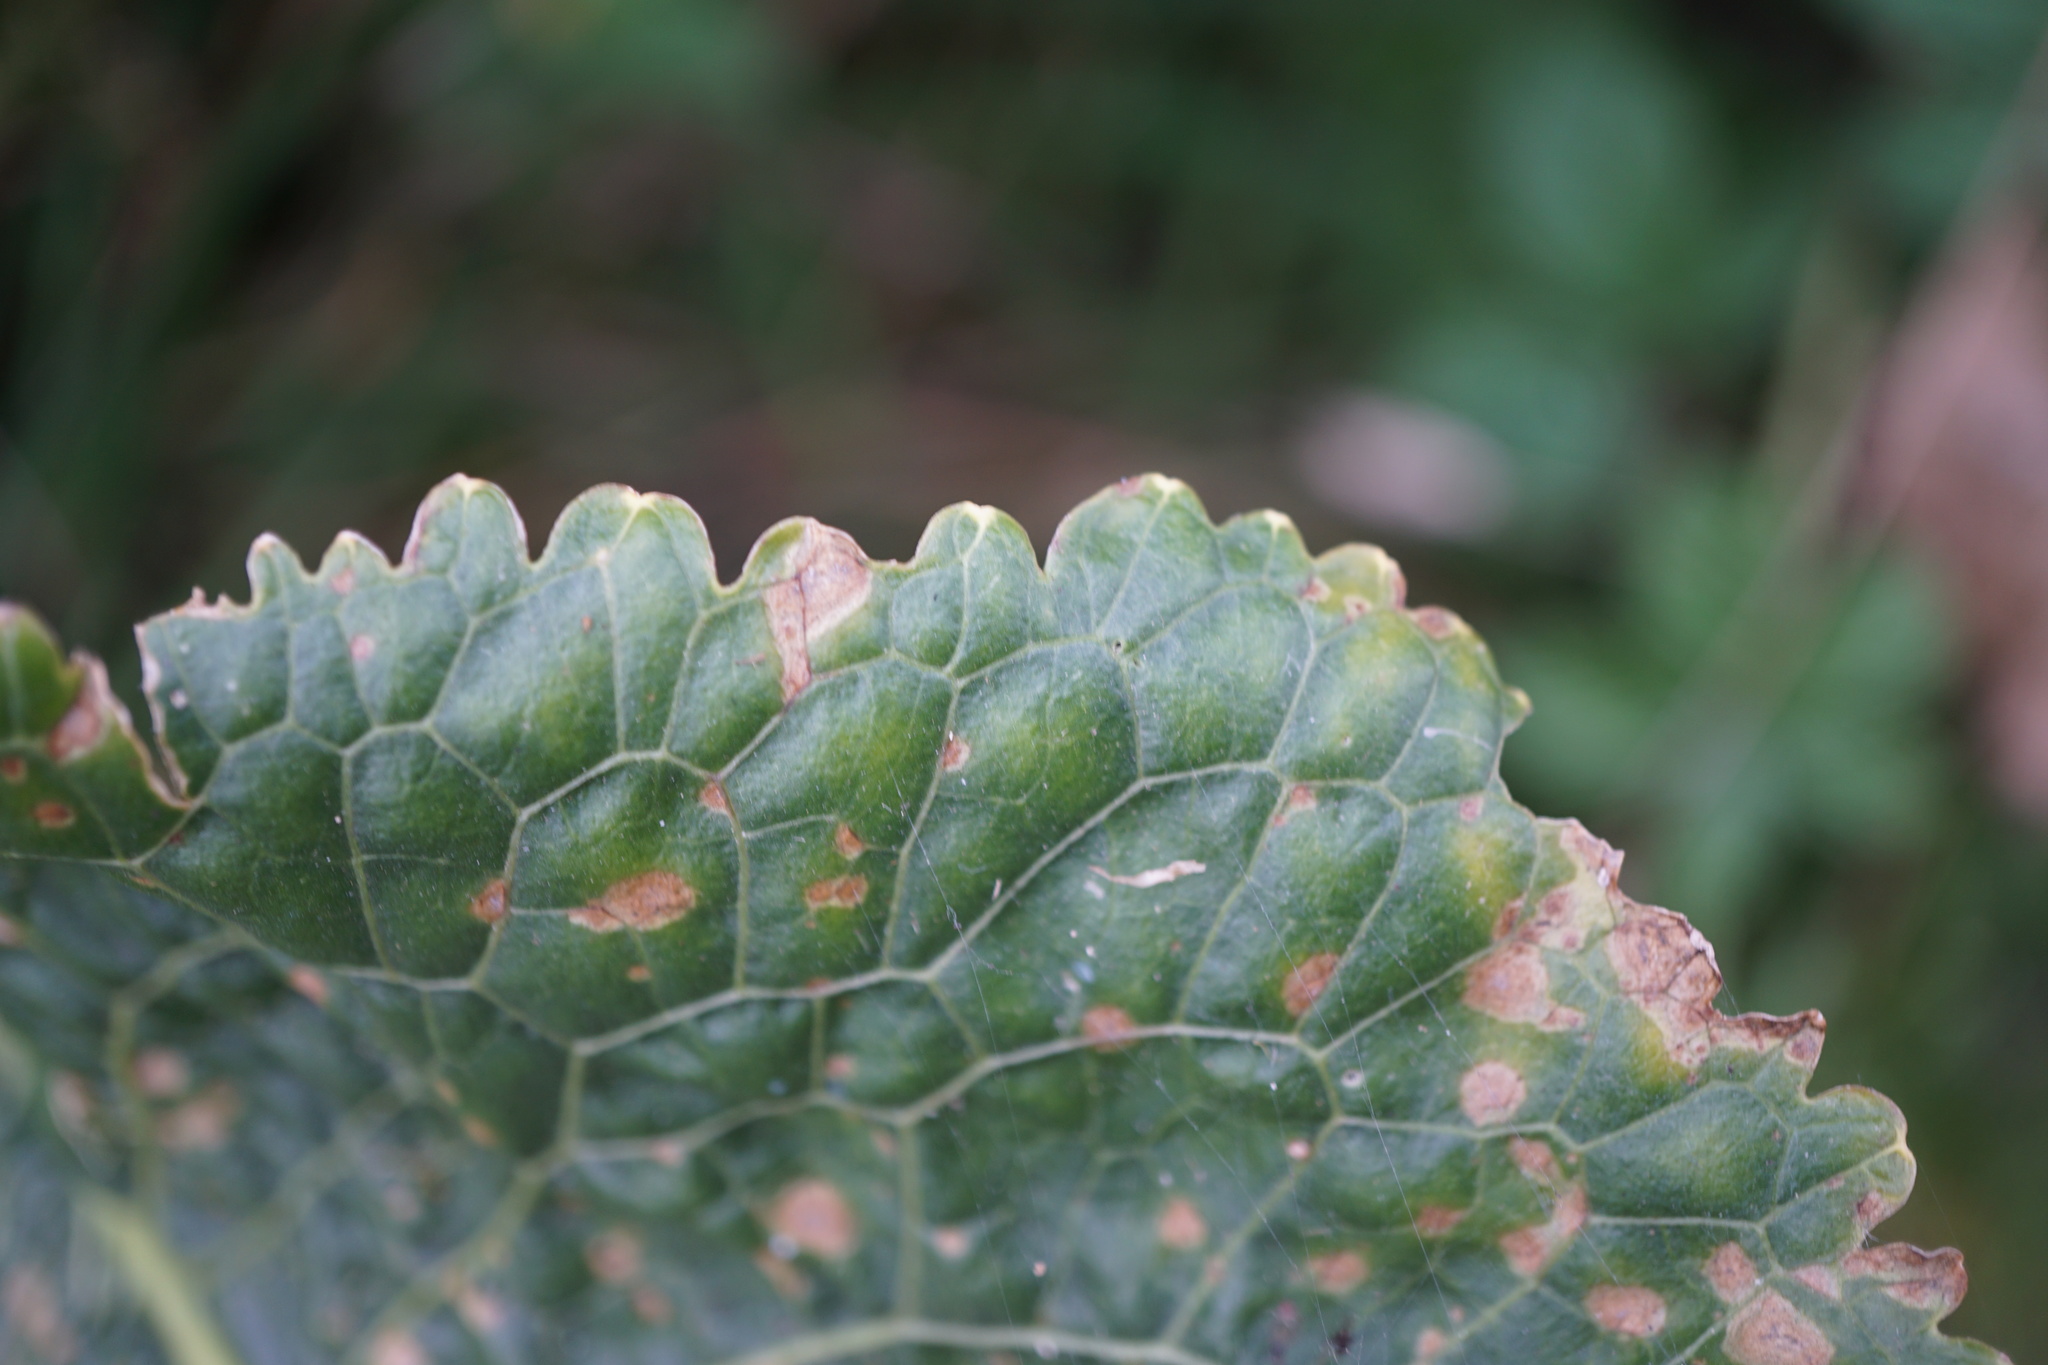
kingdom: Plantae
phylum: Tracheophyta
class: Magnoliopsida
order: Brassicales
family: Brassicaceae
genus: Armoracia
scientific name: Armoracia rusticana
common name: Horseradish
